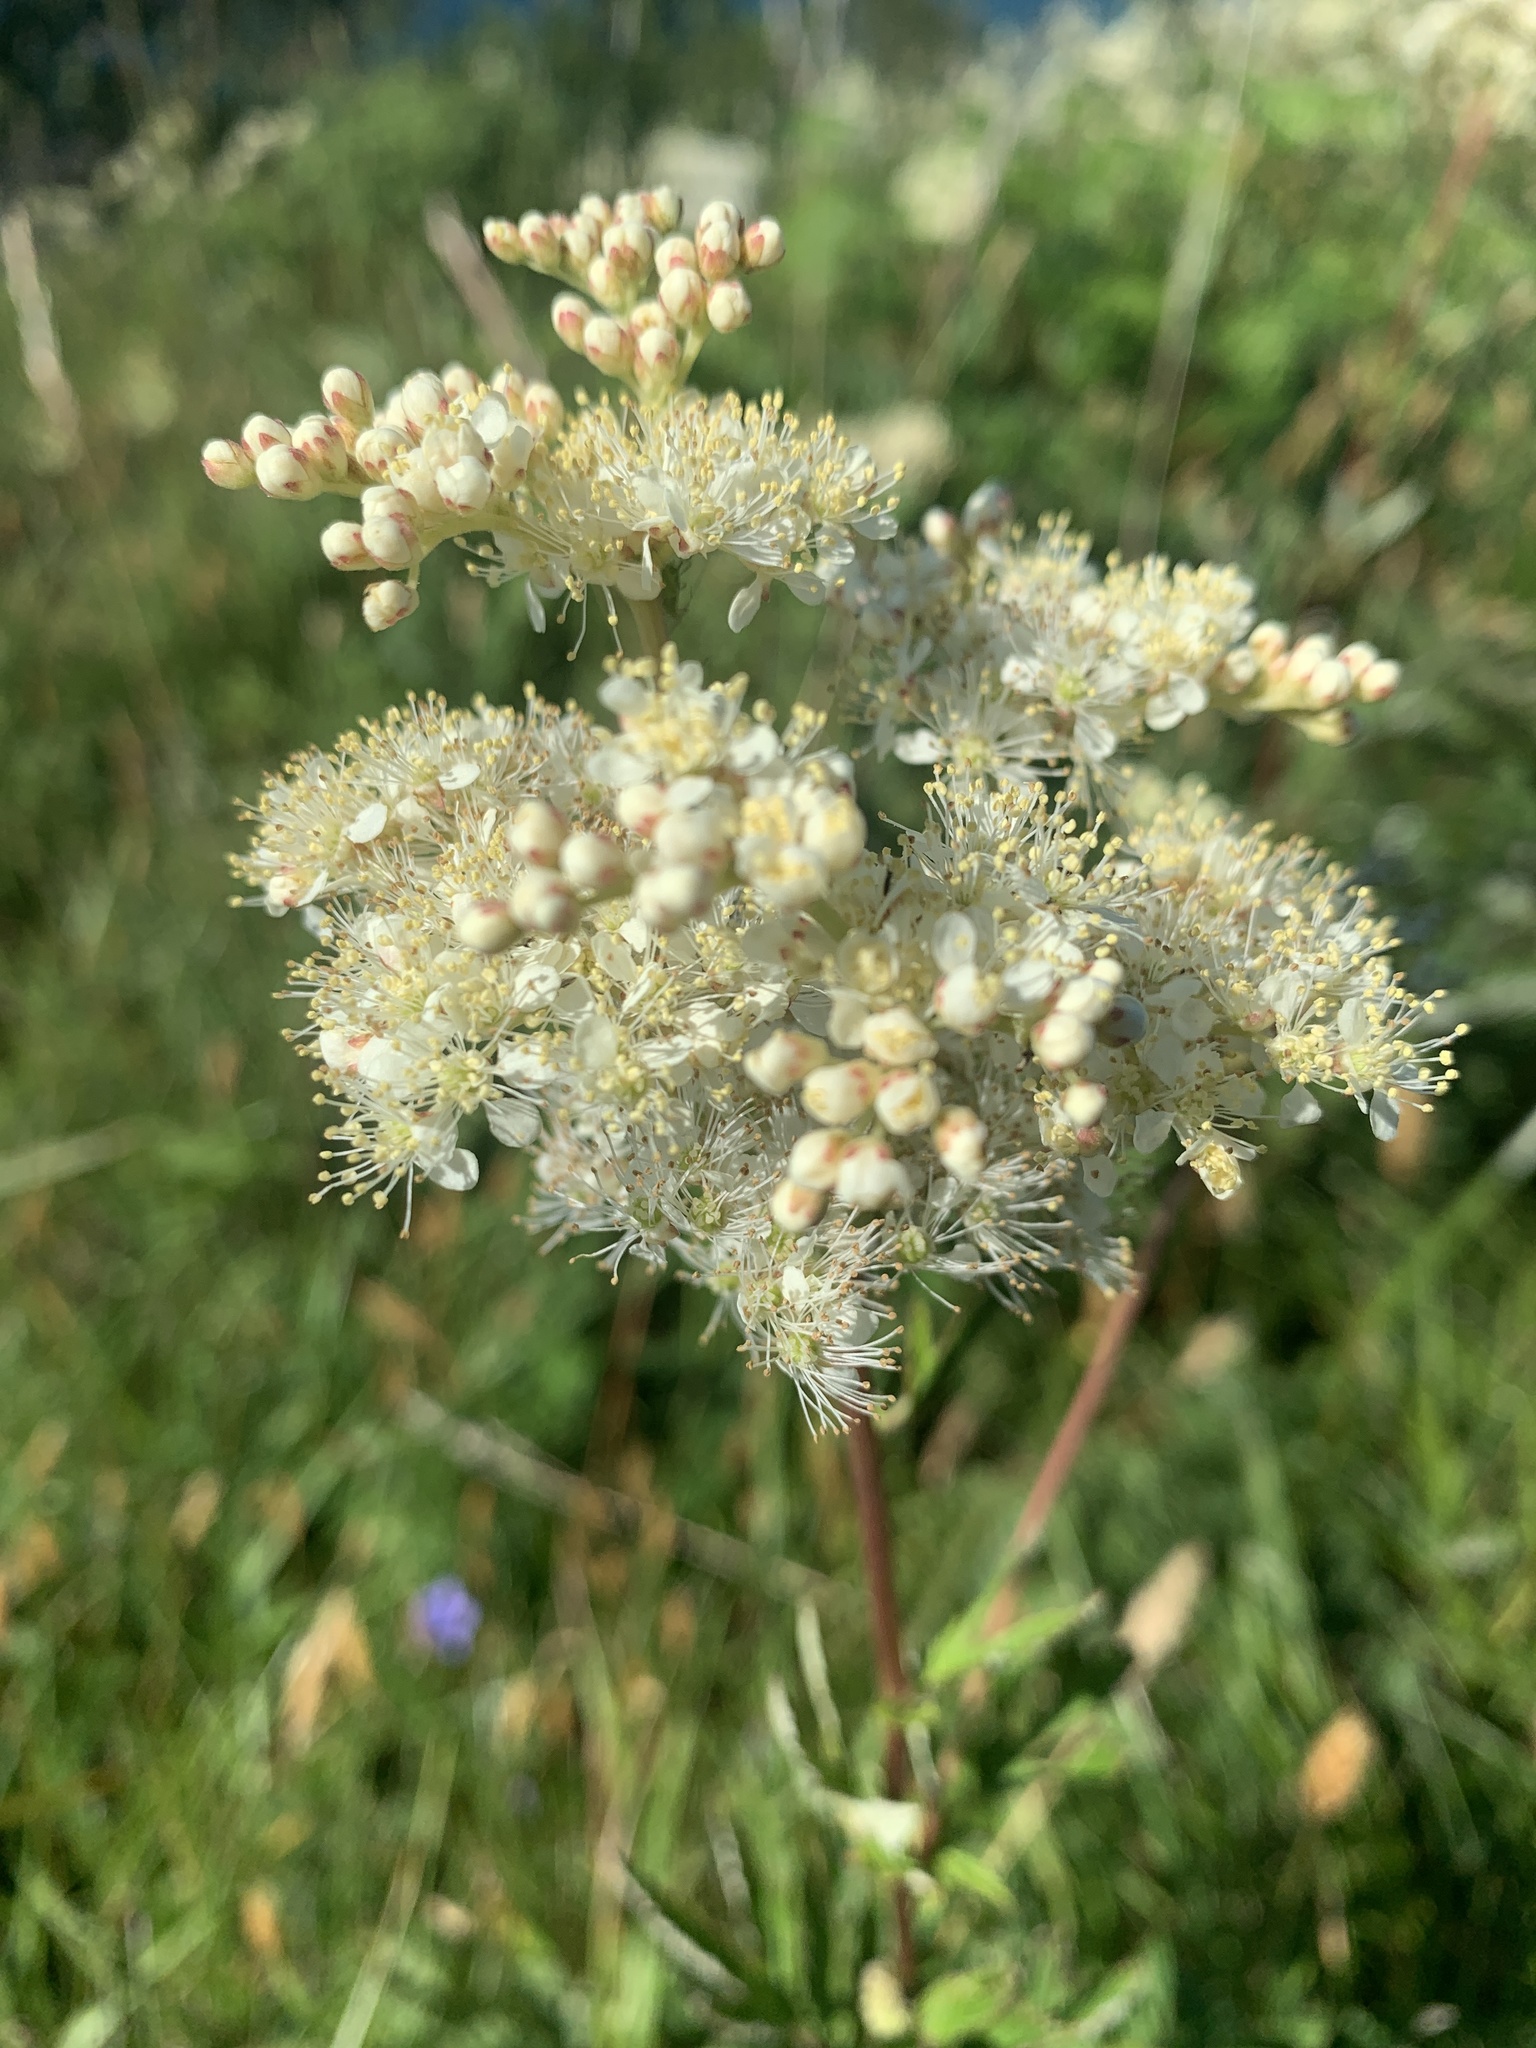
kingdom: Plantae
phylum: Tracheophyta
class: Magnoliopsida
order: Rosales
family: Rosaceae
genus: Filipendula
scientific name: Filipendula ulmaria
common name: Meadowsweet
